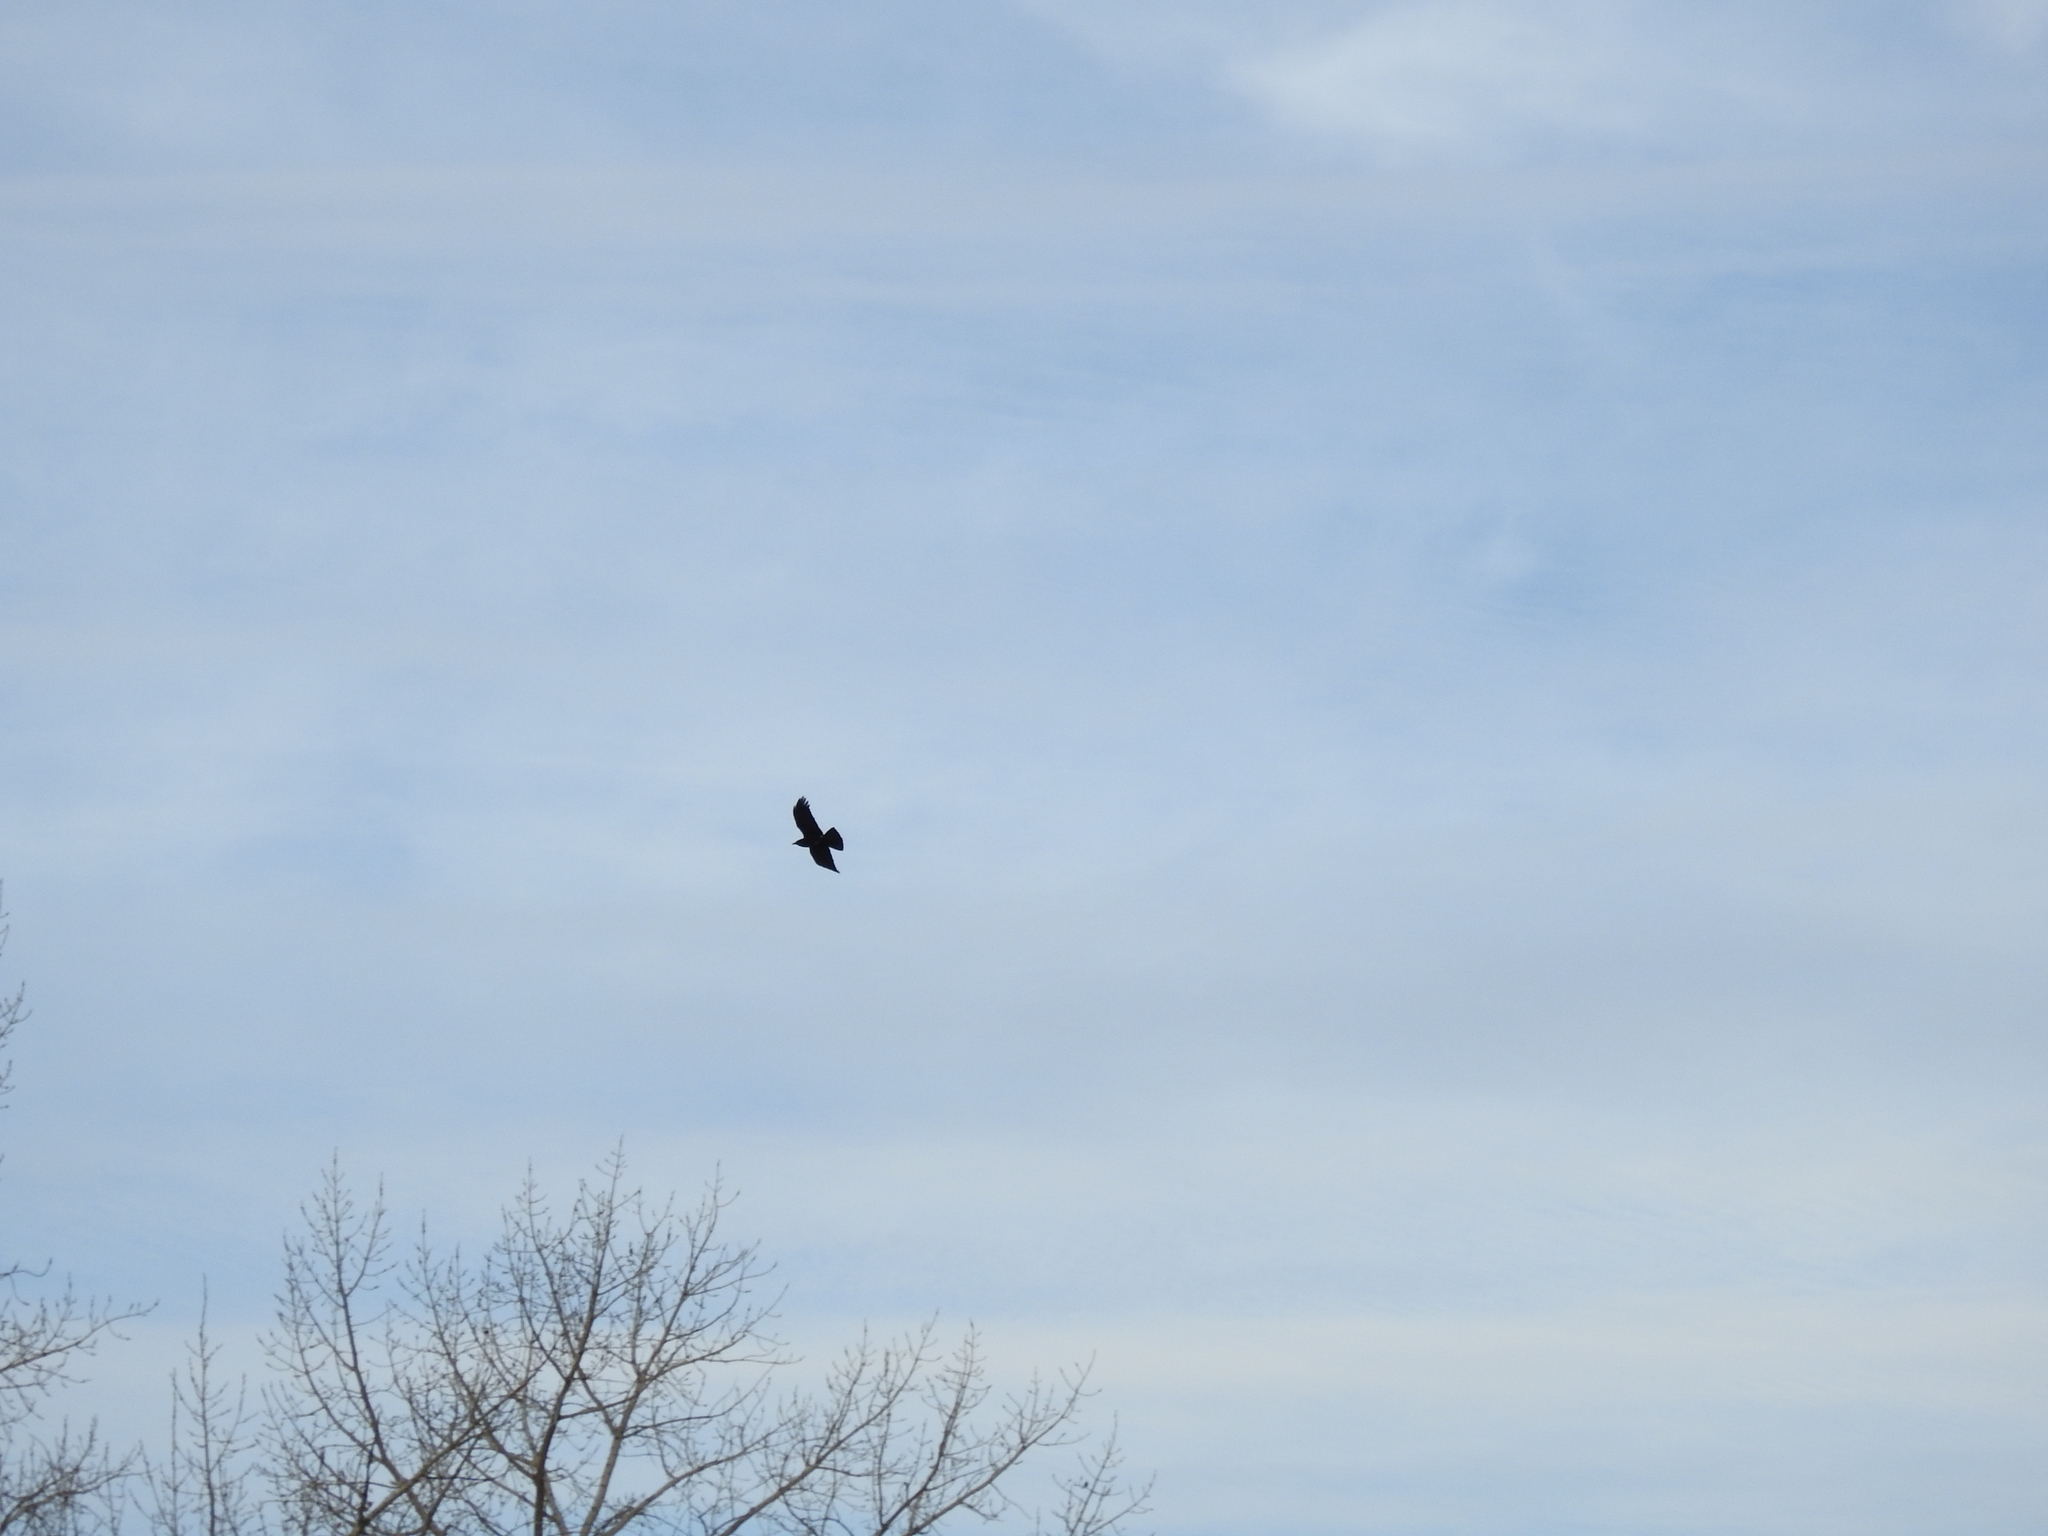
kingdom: Animalia
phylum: Chordata
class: Aves
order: Passeriformes
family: Corvidae
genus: Corvus
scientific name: Corvus brachyrhynchos
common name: American crow
